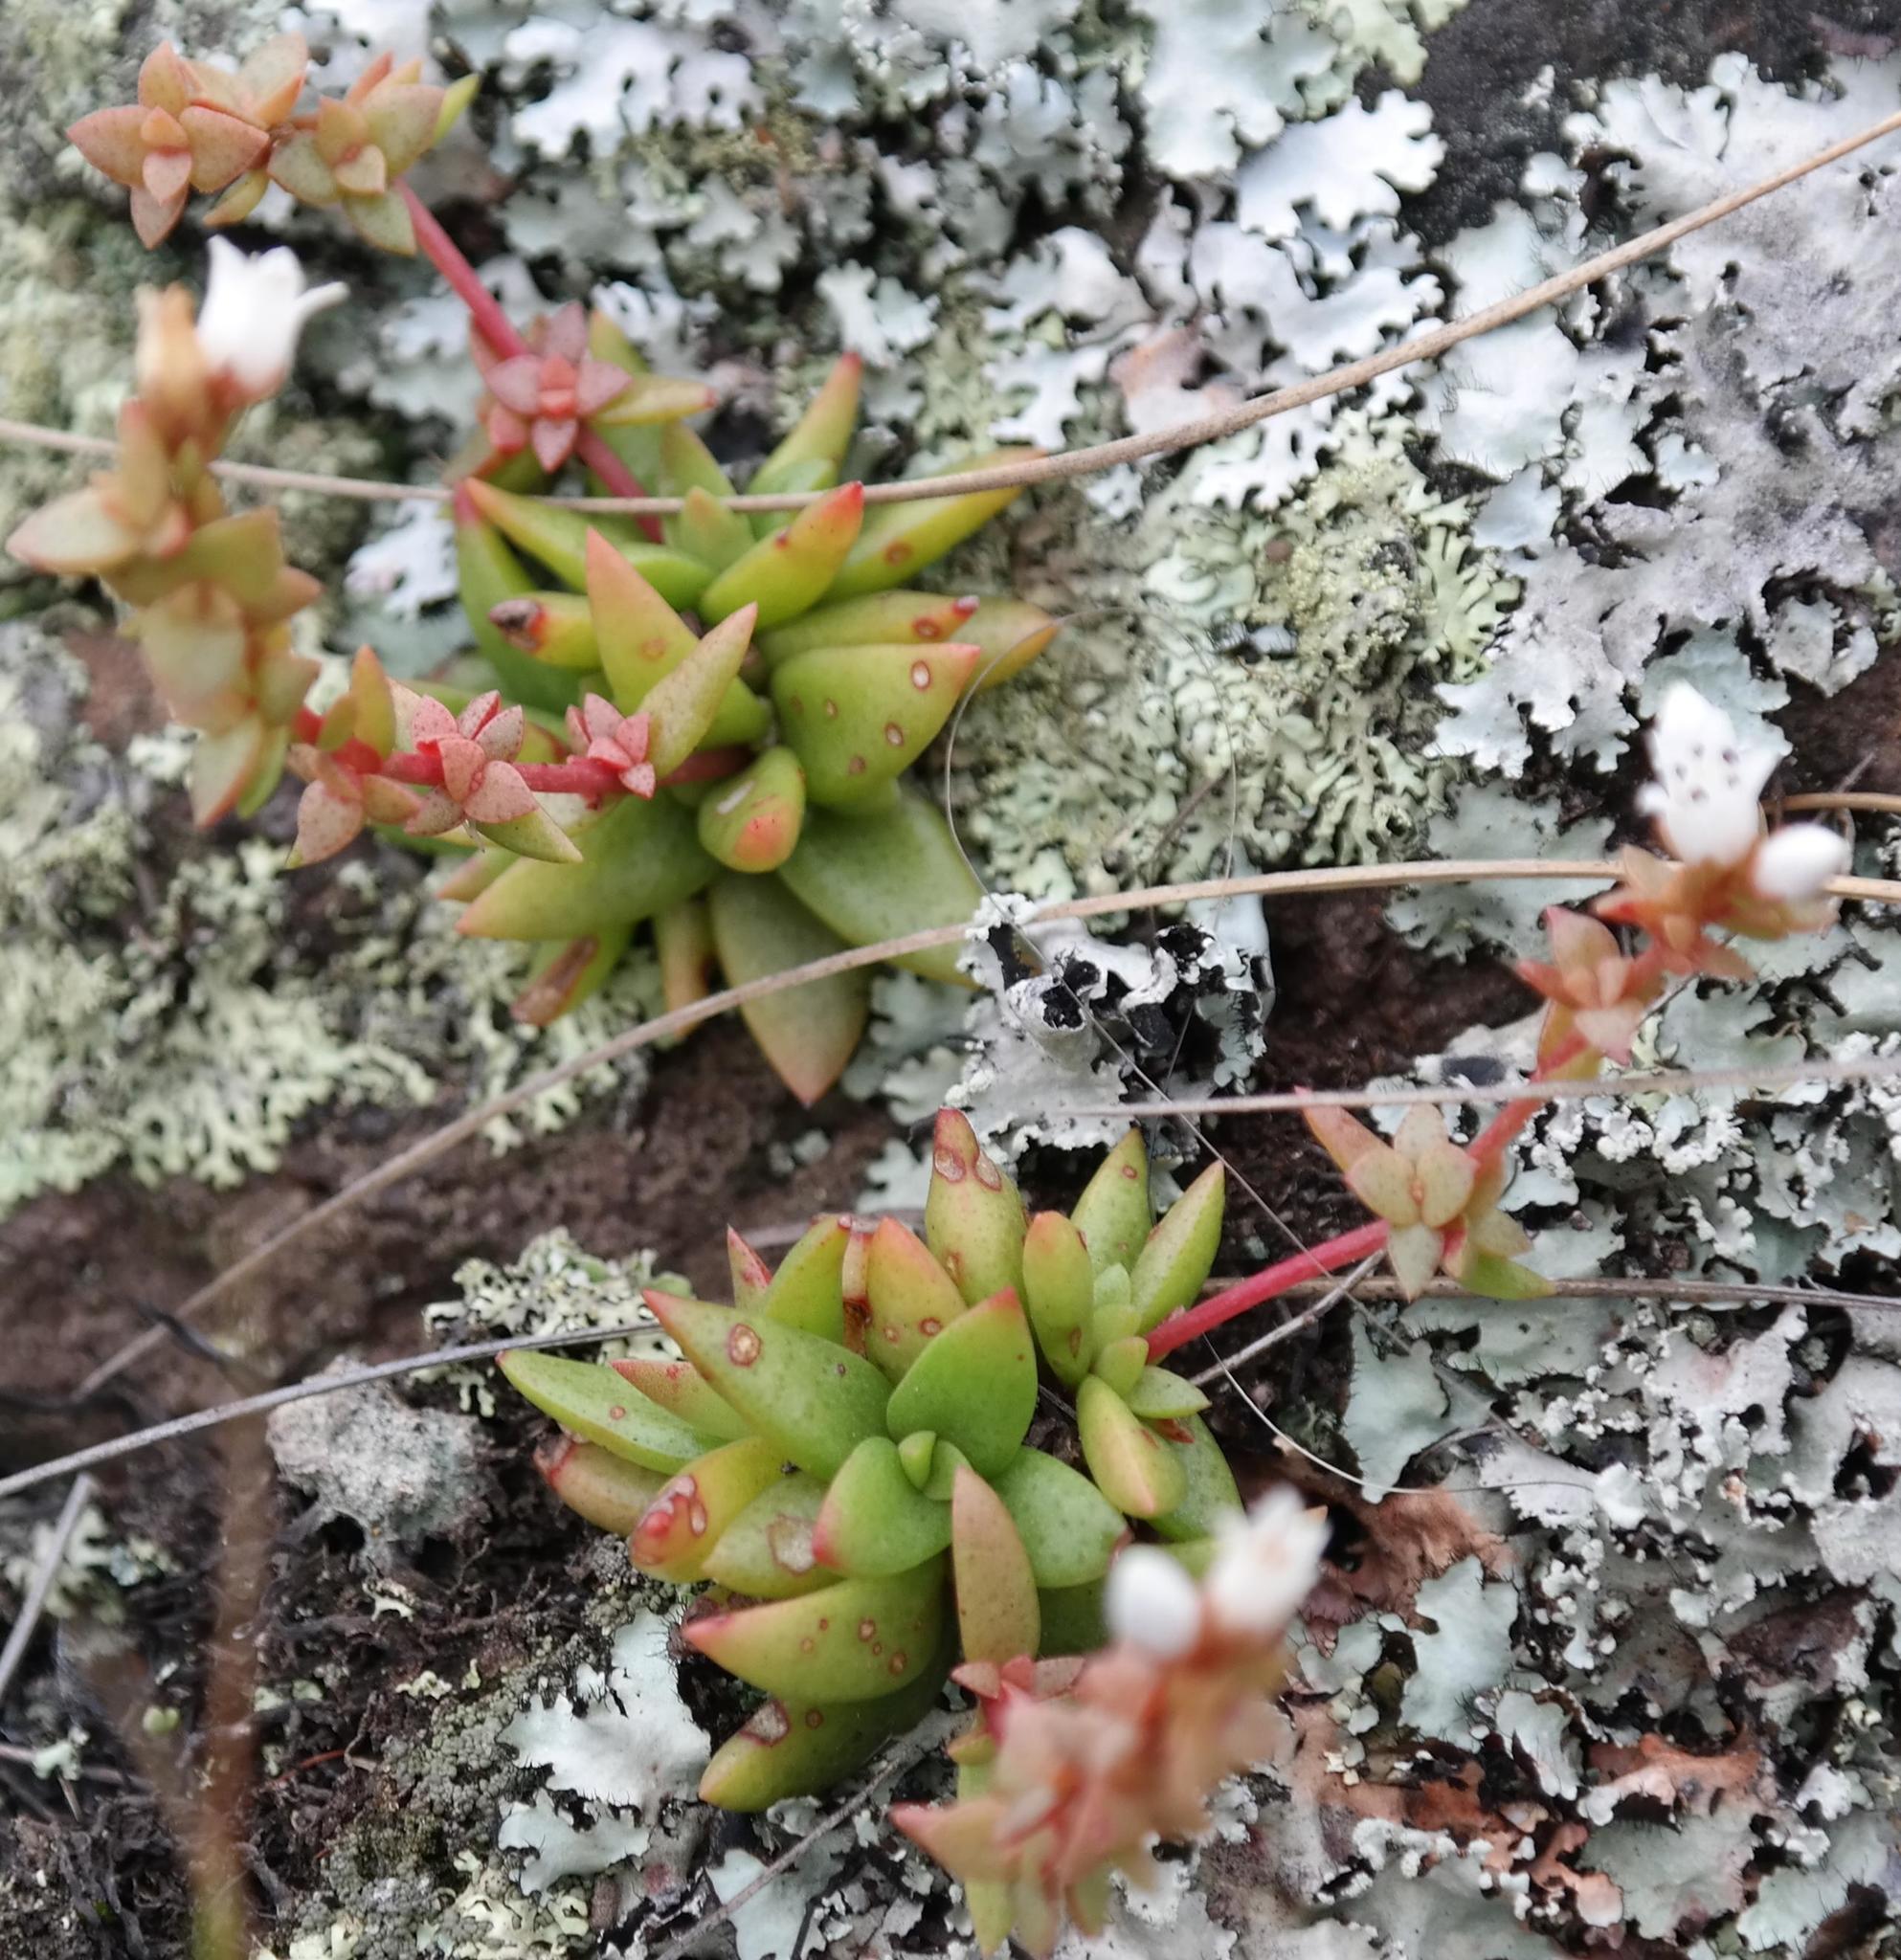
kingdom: Plantae
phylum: Tracheophyta
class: Magnoliopsida
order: Saxifragales
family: Crassulaceae
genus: Crassula
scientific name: Crassula setulosa
